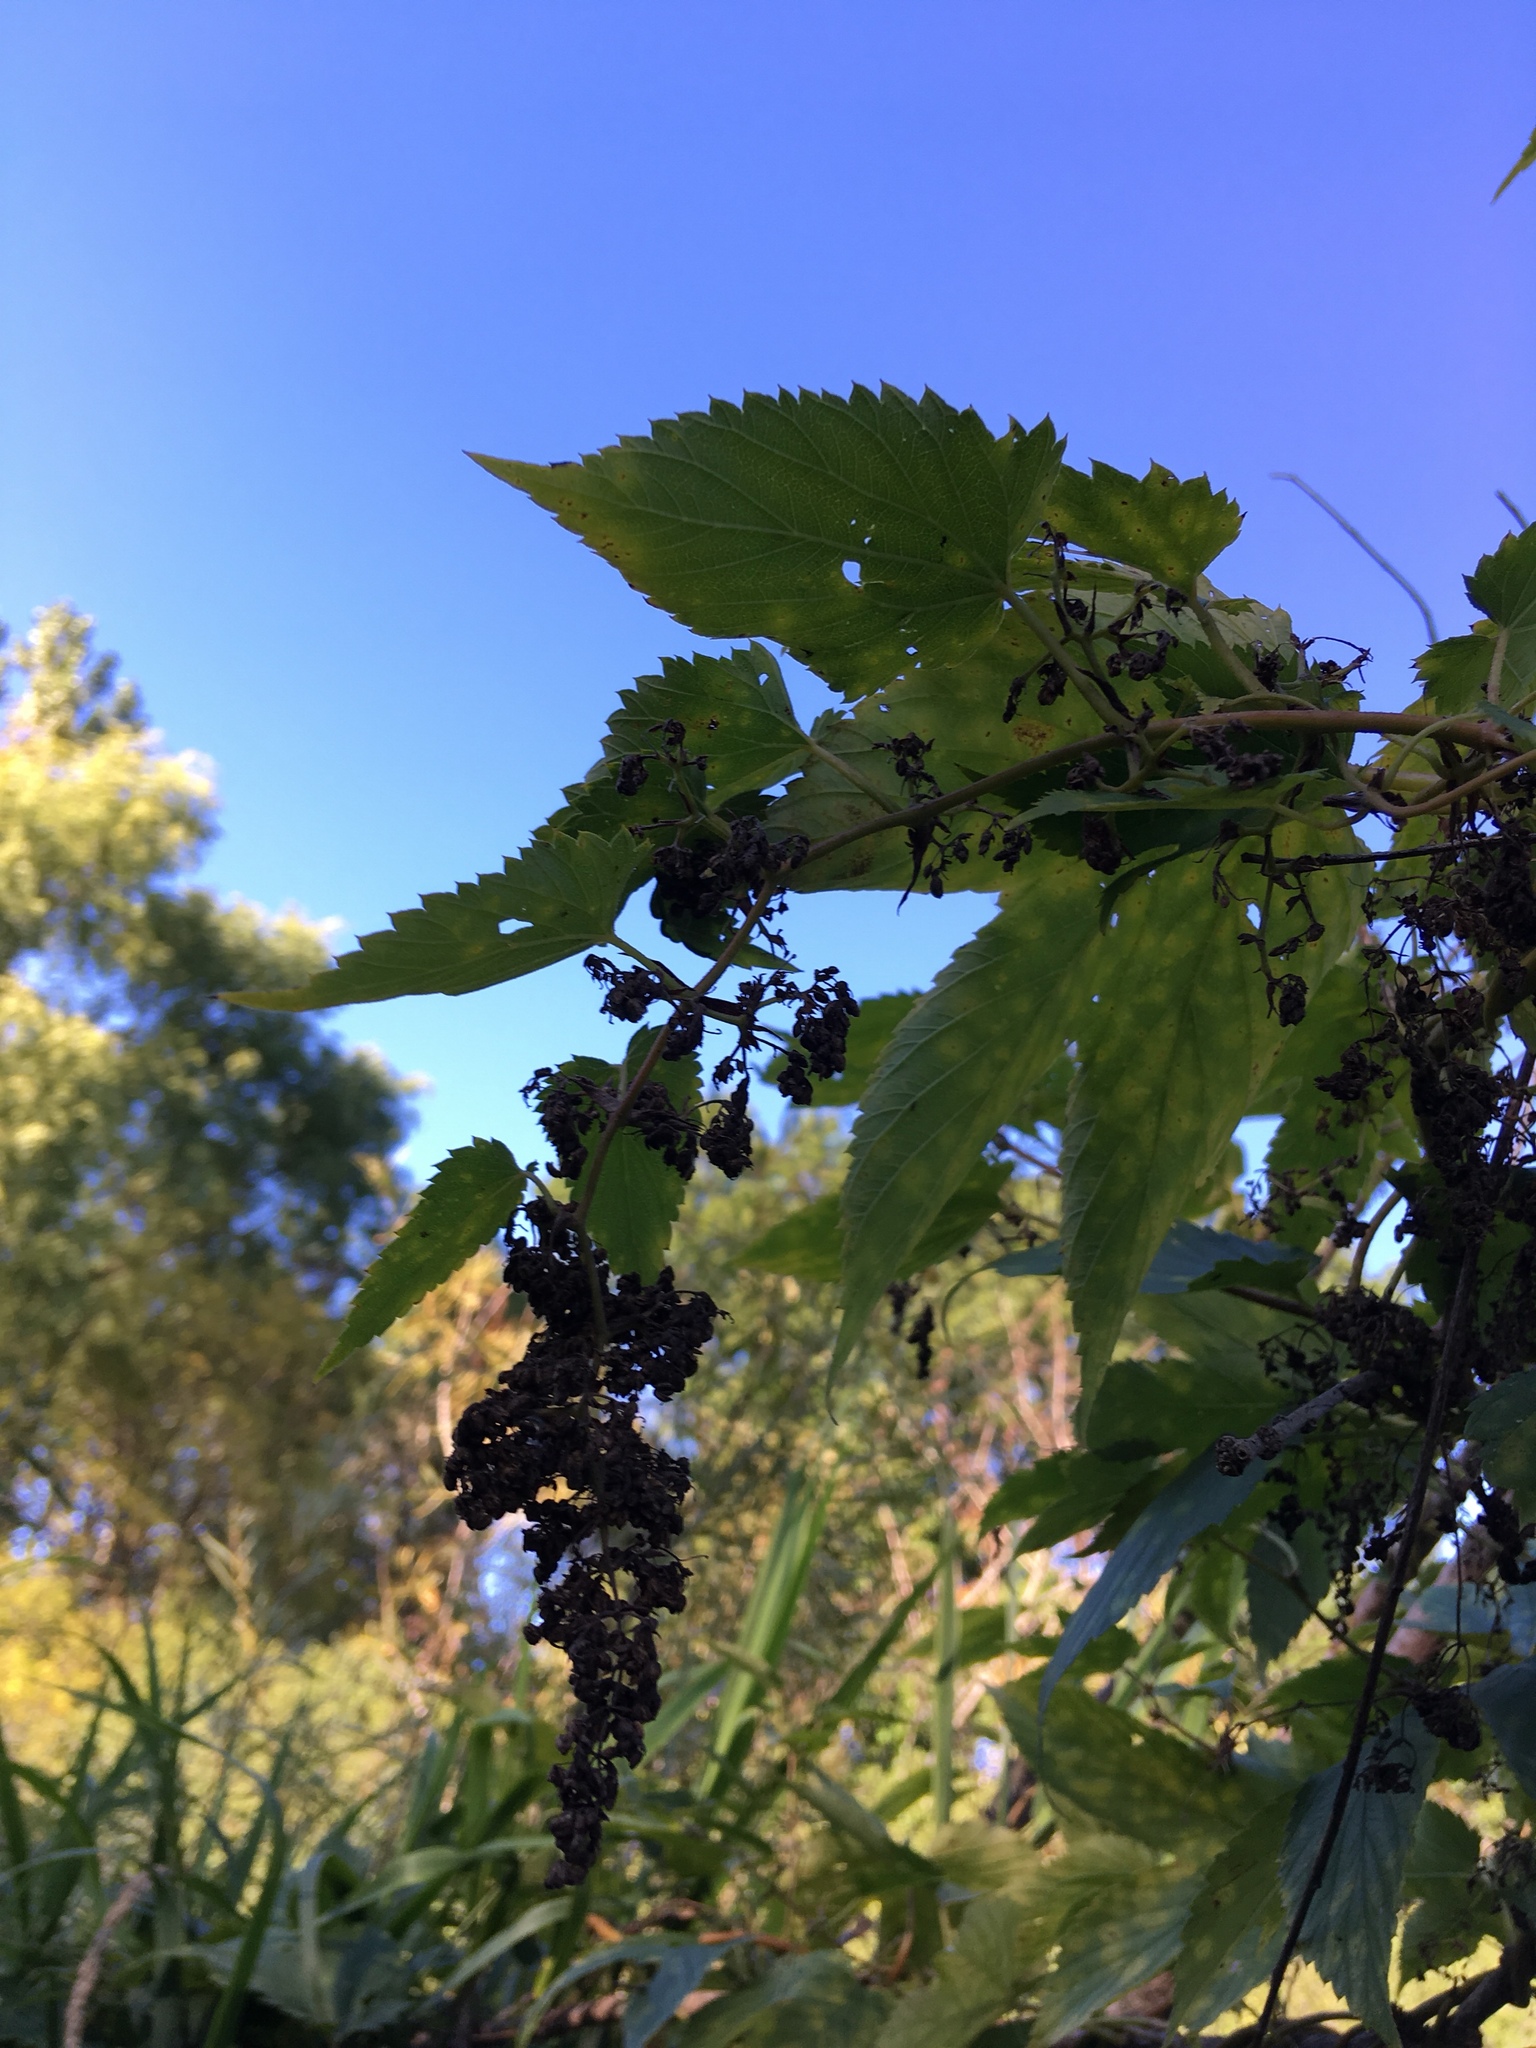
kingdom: Plantae
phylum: Tracheophyta
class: Magnoliopsida
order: Rosales
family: Cannabaceae
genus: Humulus
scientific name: Humulus lupulus
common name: Hop
